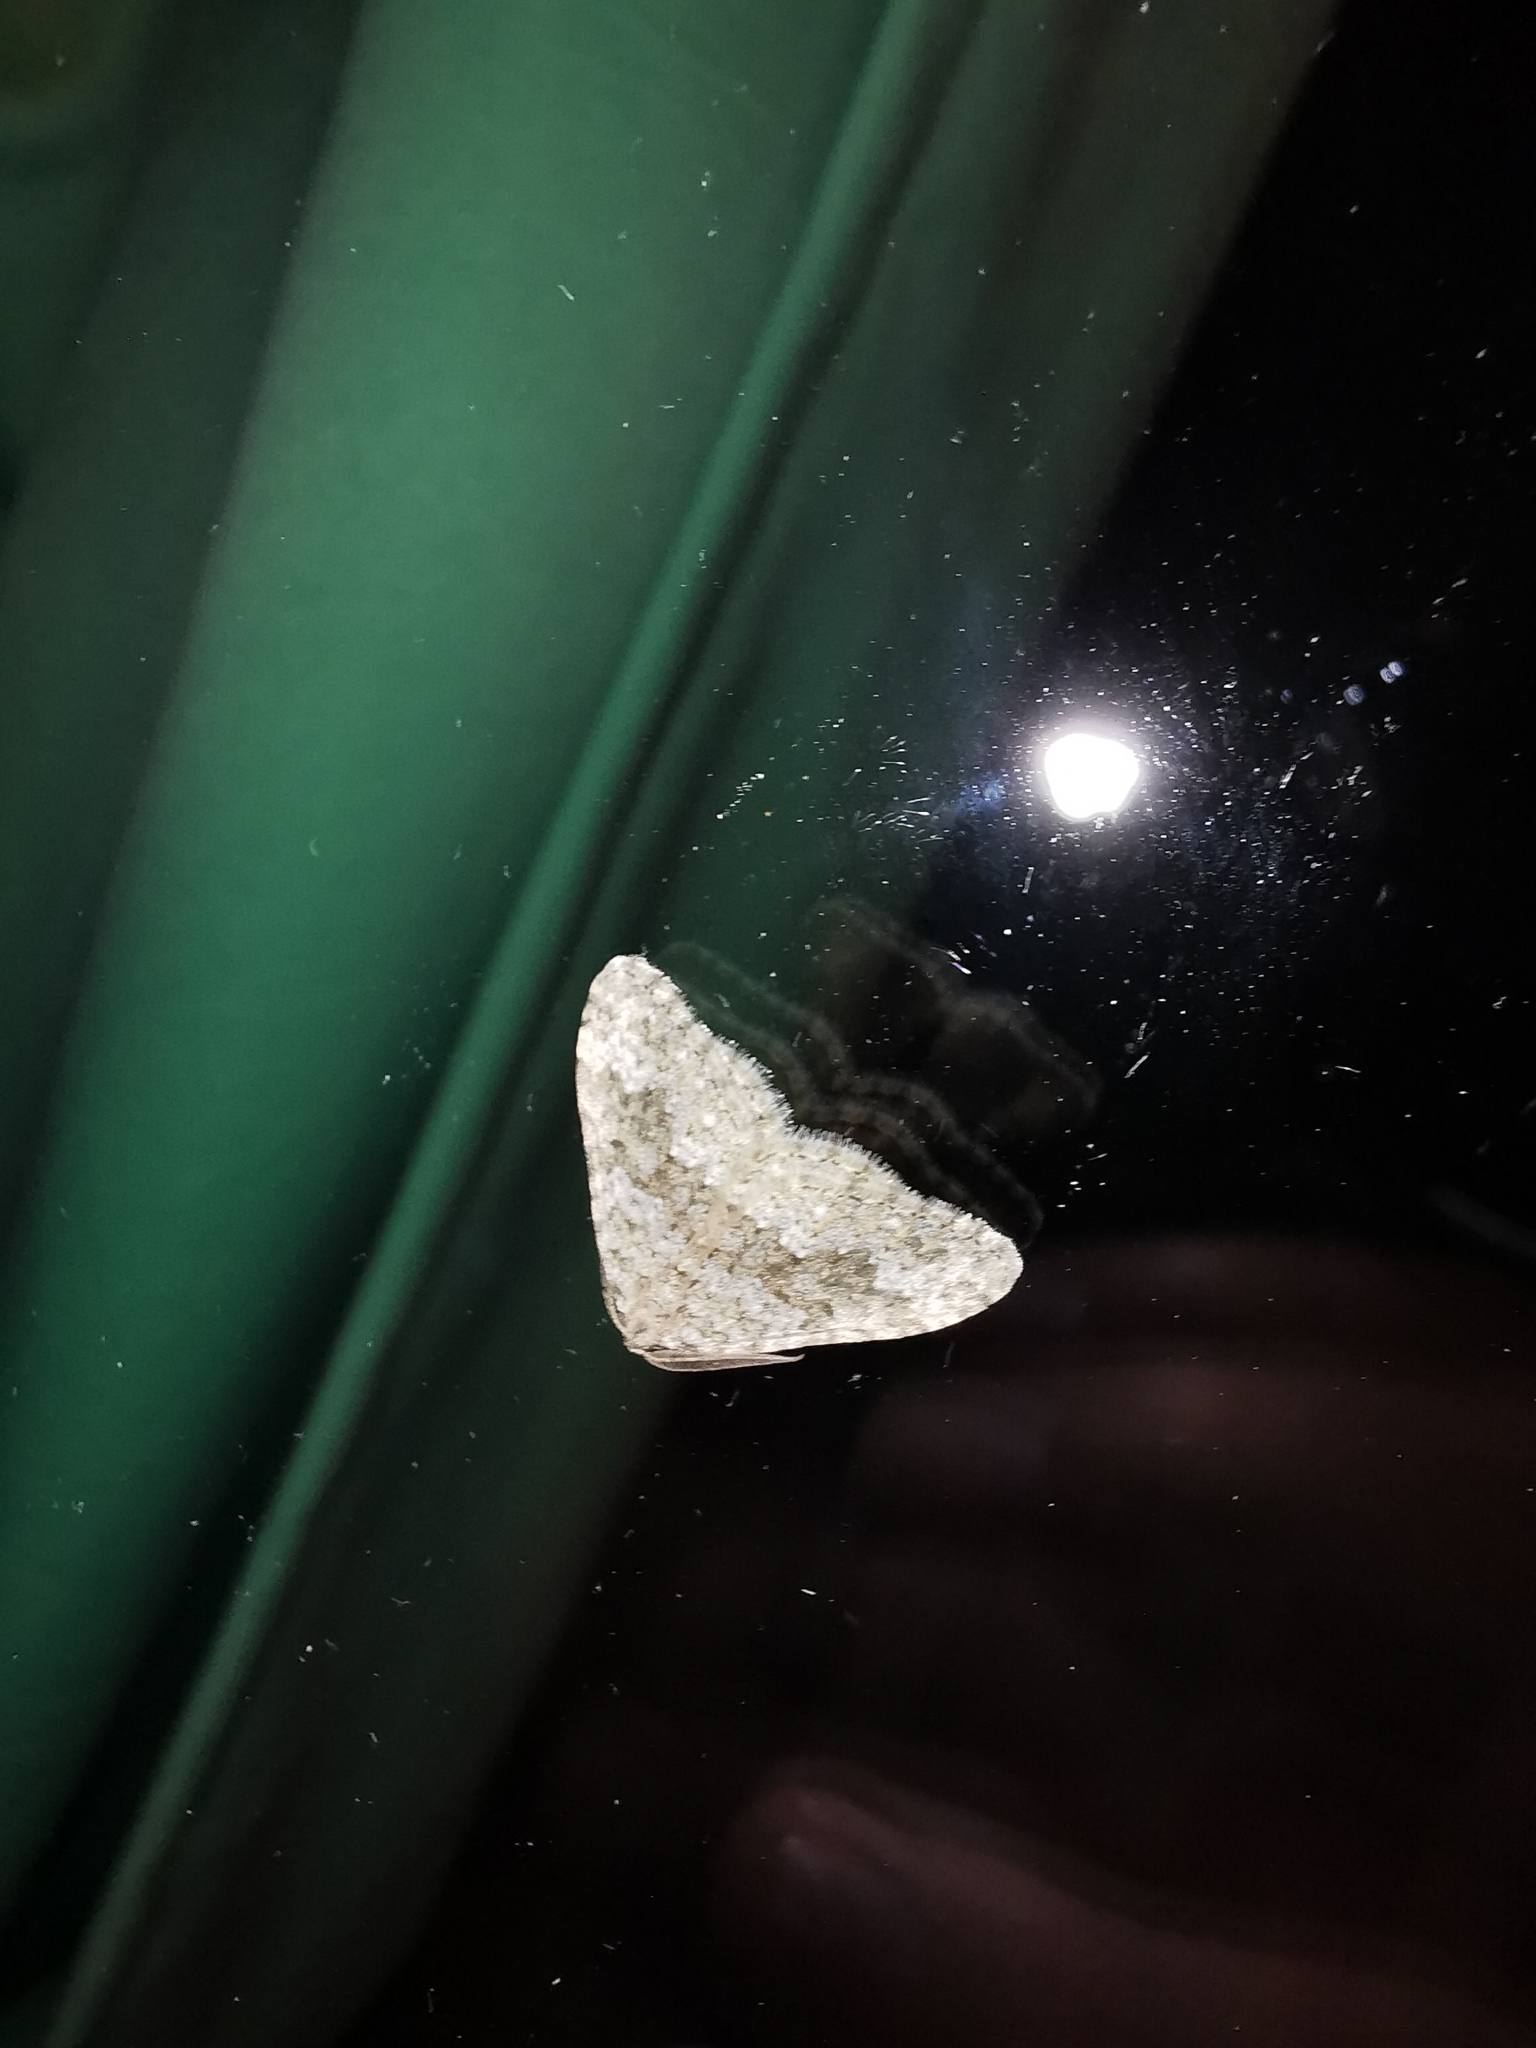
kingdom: Animalia
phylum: Arthropoda
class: Insecta
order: Lepidoptera
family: Geometridae
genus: Nebula
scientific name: Nebula salicata
